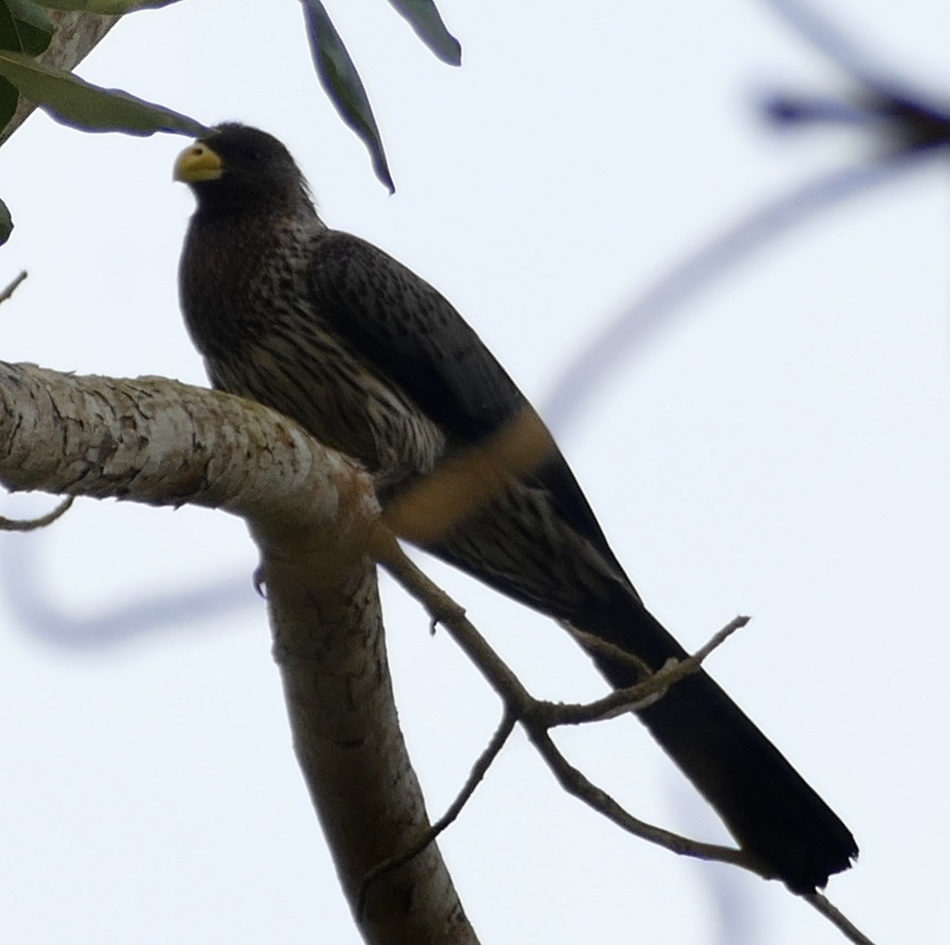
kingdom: Animalia
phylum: Chordata
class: Aves
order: Musophagiformes
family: Musophagidae
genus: Crinifer
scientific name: Crinifer piscator
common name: Western plantain-eater
